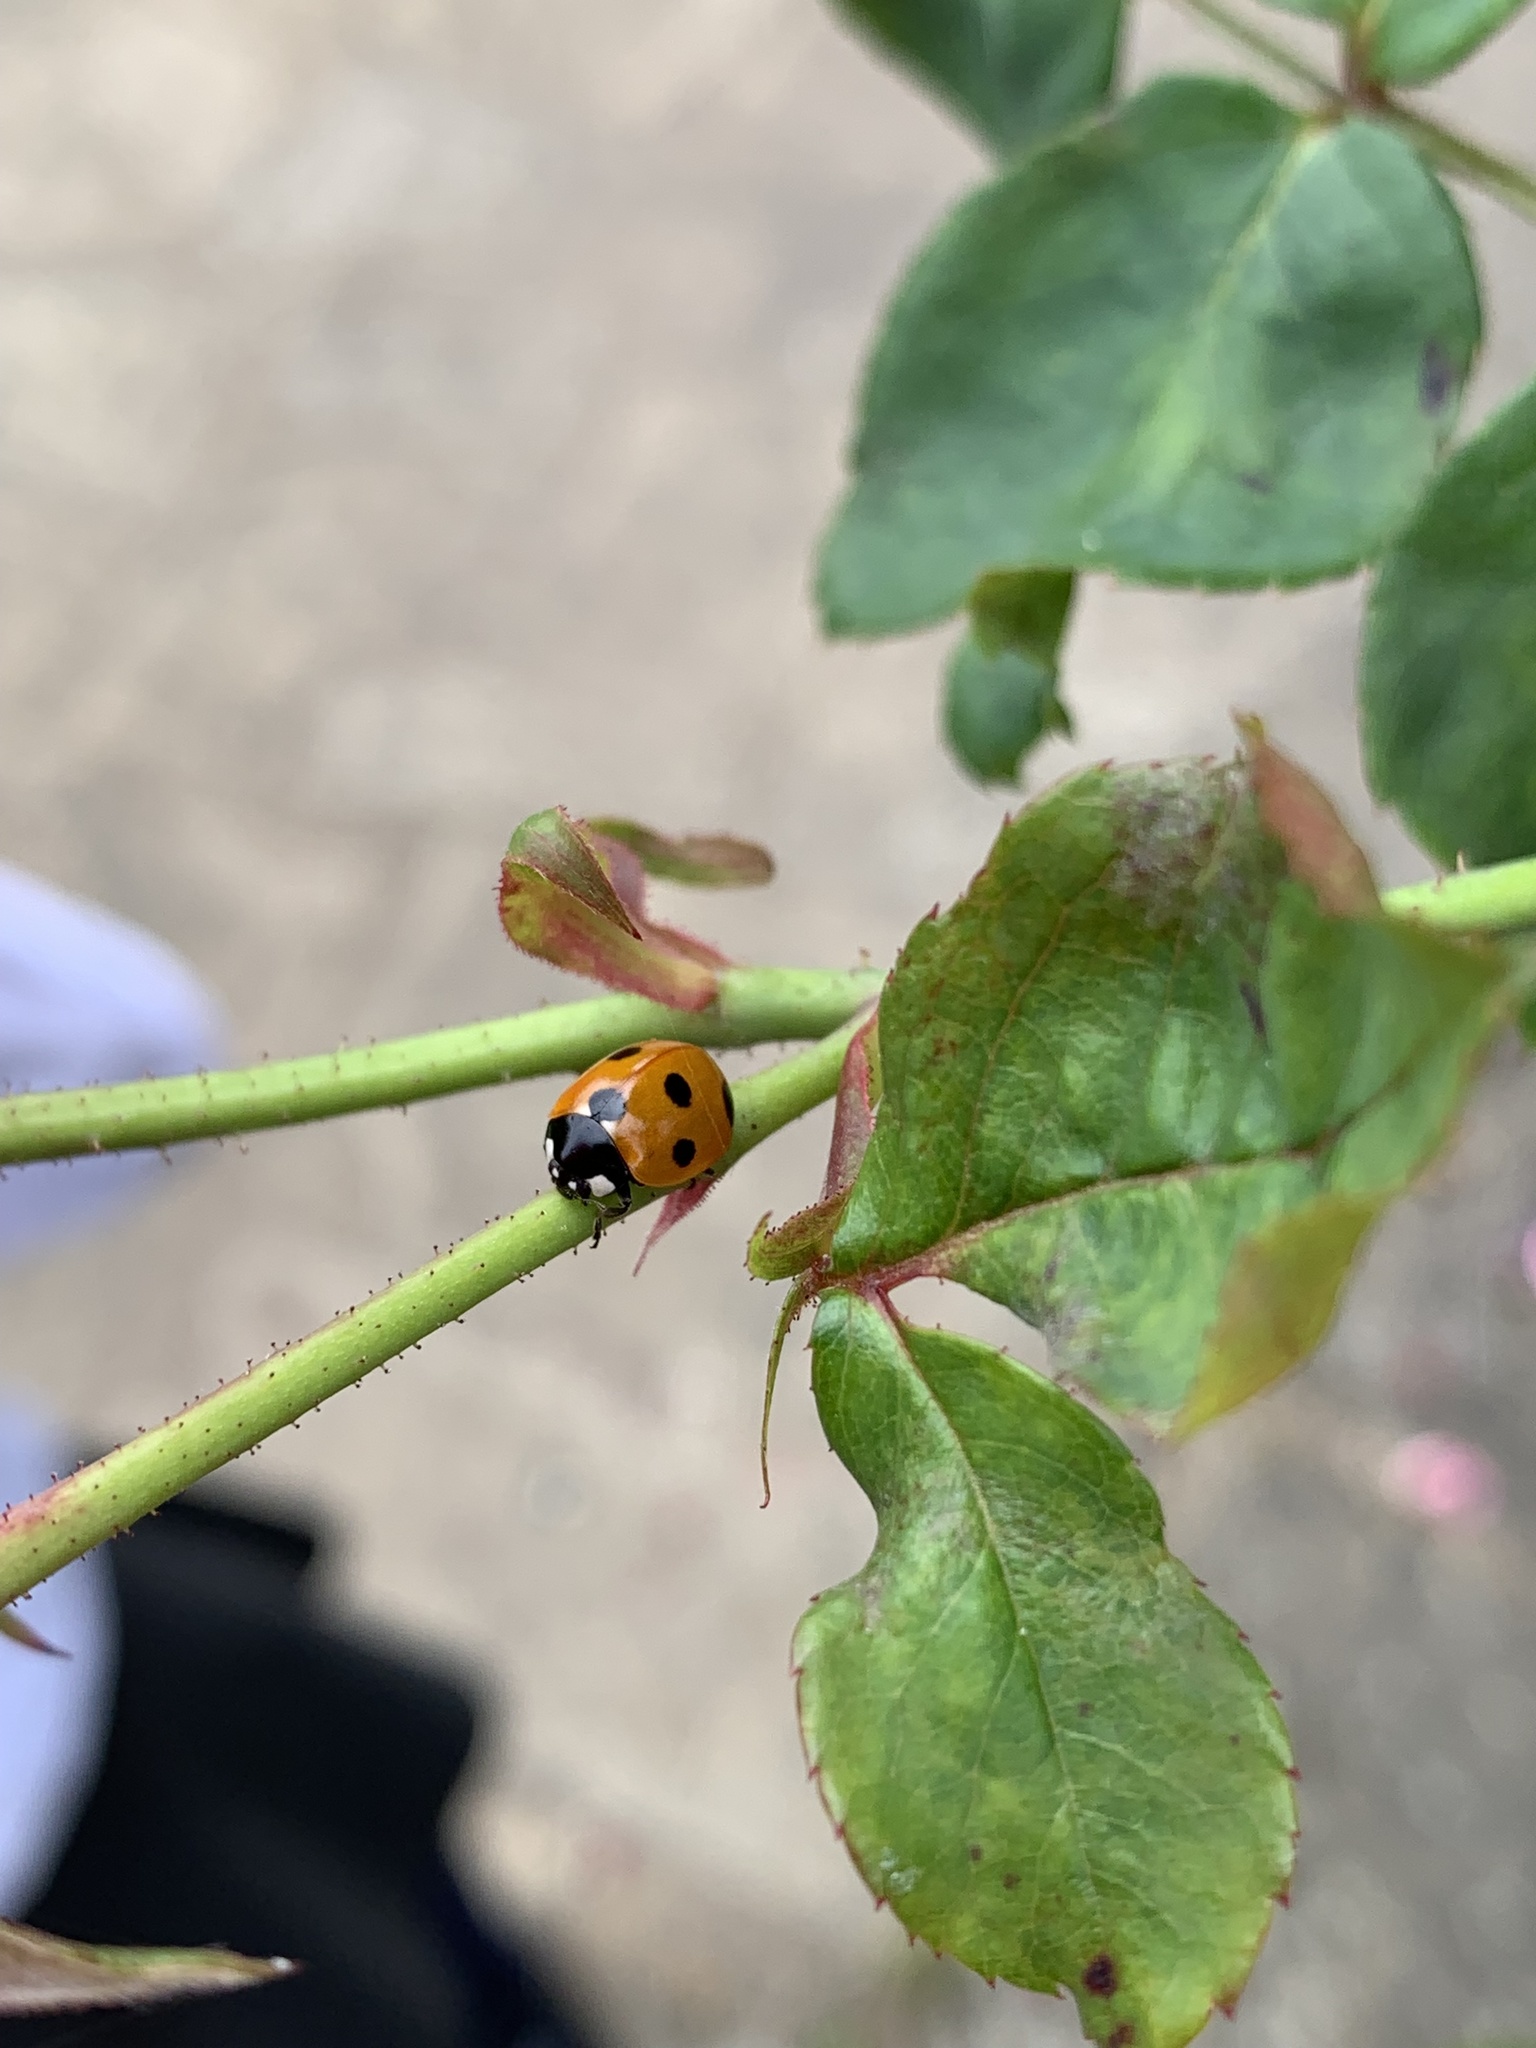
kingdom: Animalia
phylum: Arthropoda
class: Insecta
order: Coleoptera
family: Coccinellidae
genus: Coccinella
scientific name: Coccinella septempunctata
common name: Sevenspotted lady beetle
